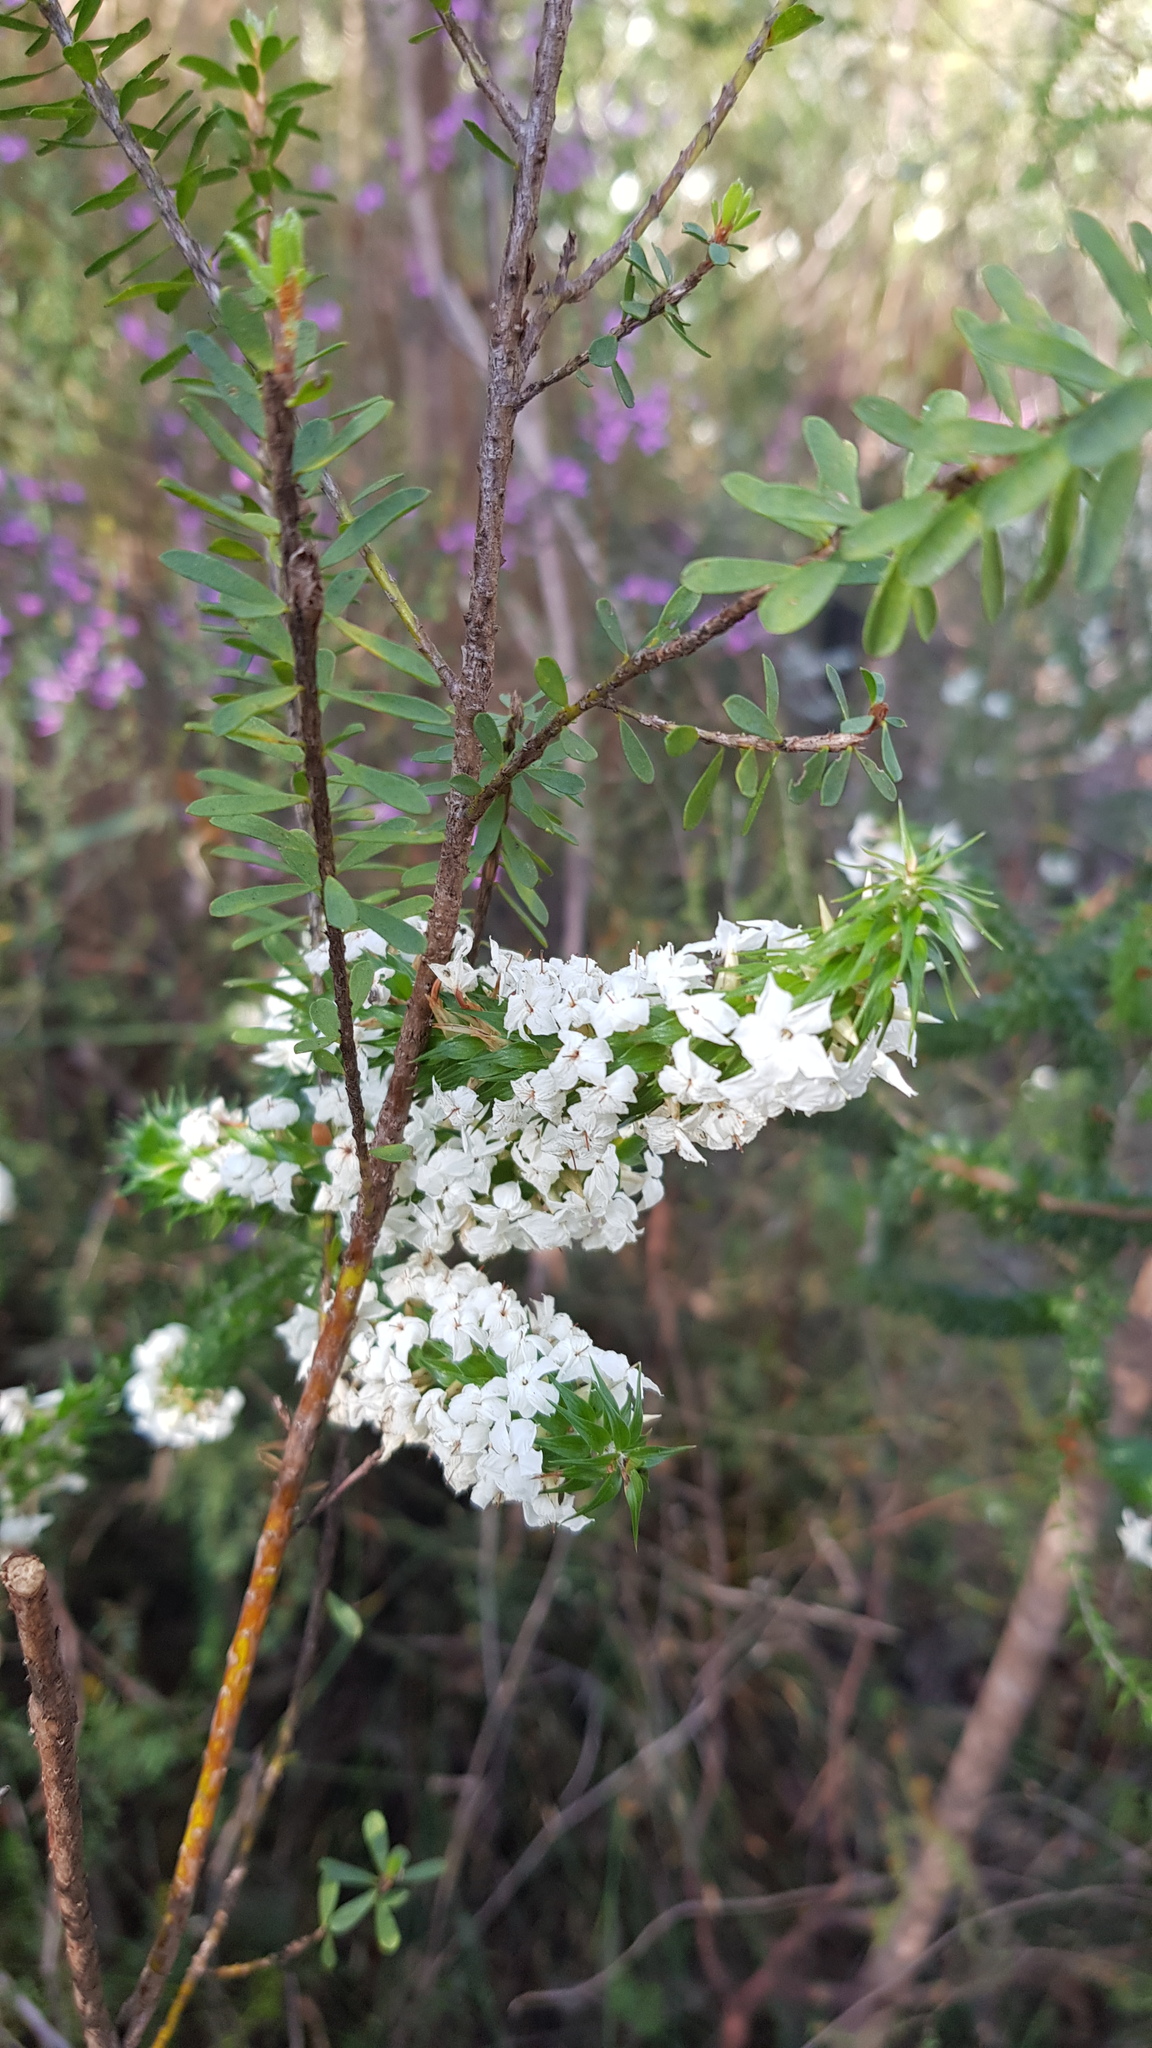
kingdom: Plantae
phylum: Tracheophyta
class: Magnoliopsida
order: Ericales
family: Ericaceae
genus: Woollsia
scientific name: Woollsia pungens
